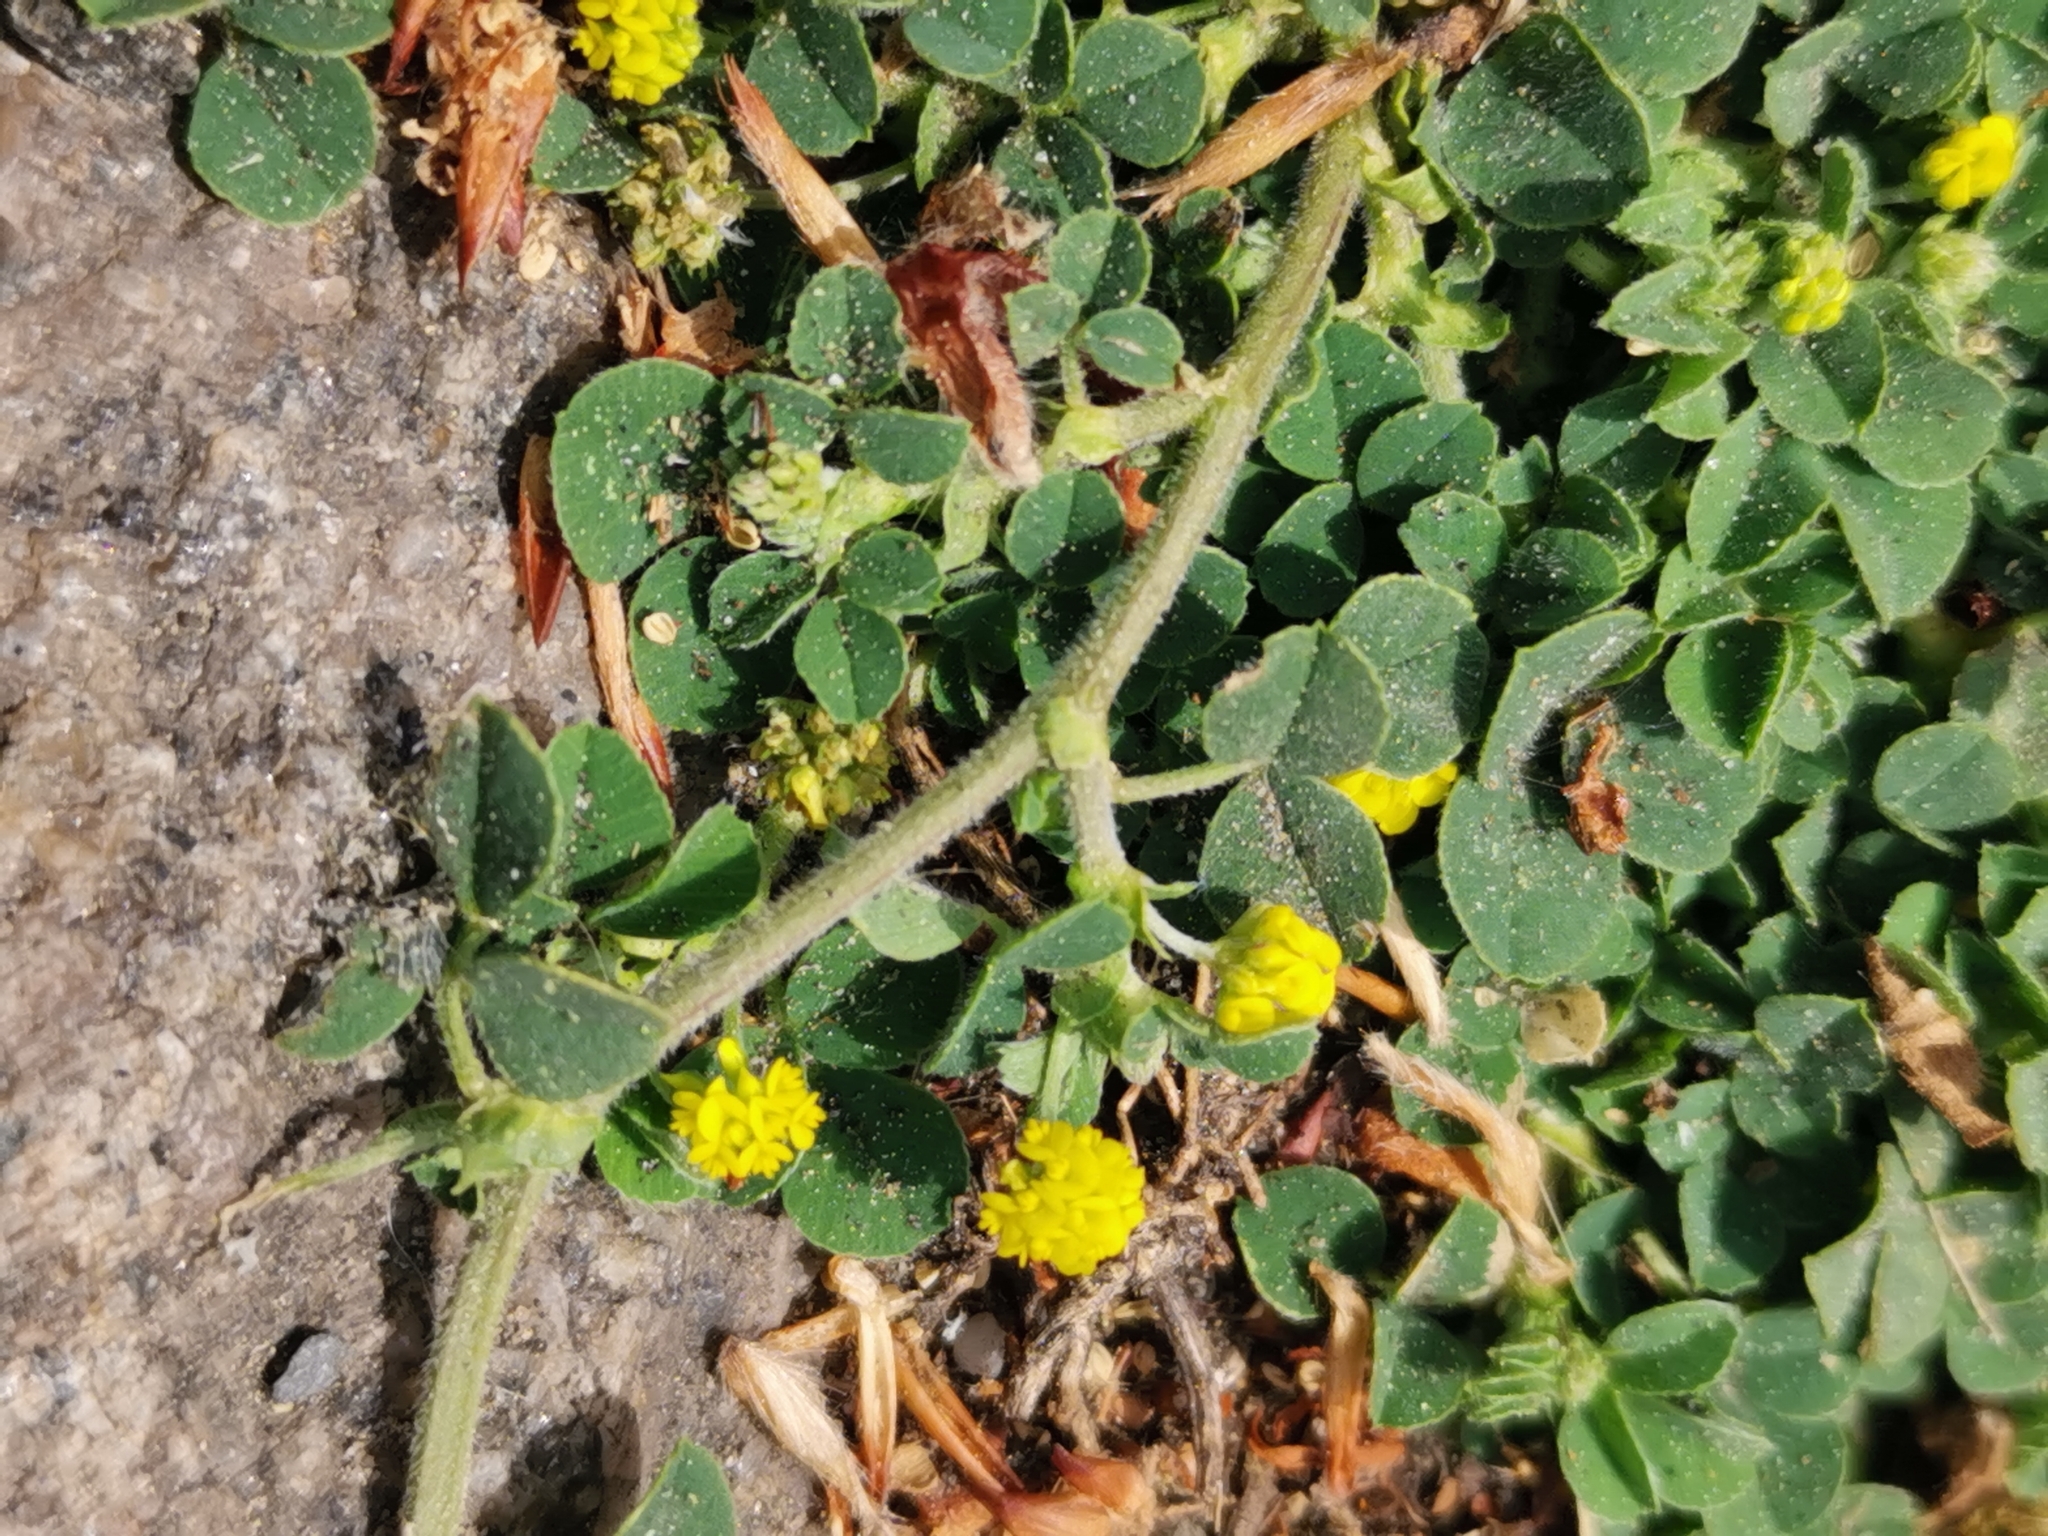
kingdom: Plantae
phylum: Tracheophyta
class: Magnoliopsida
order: Fabales
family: Fabaceae
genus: Medicago
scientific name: Medicago lupulina
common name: Black medick
